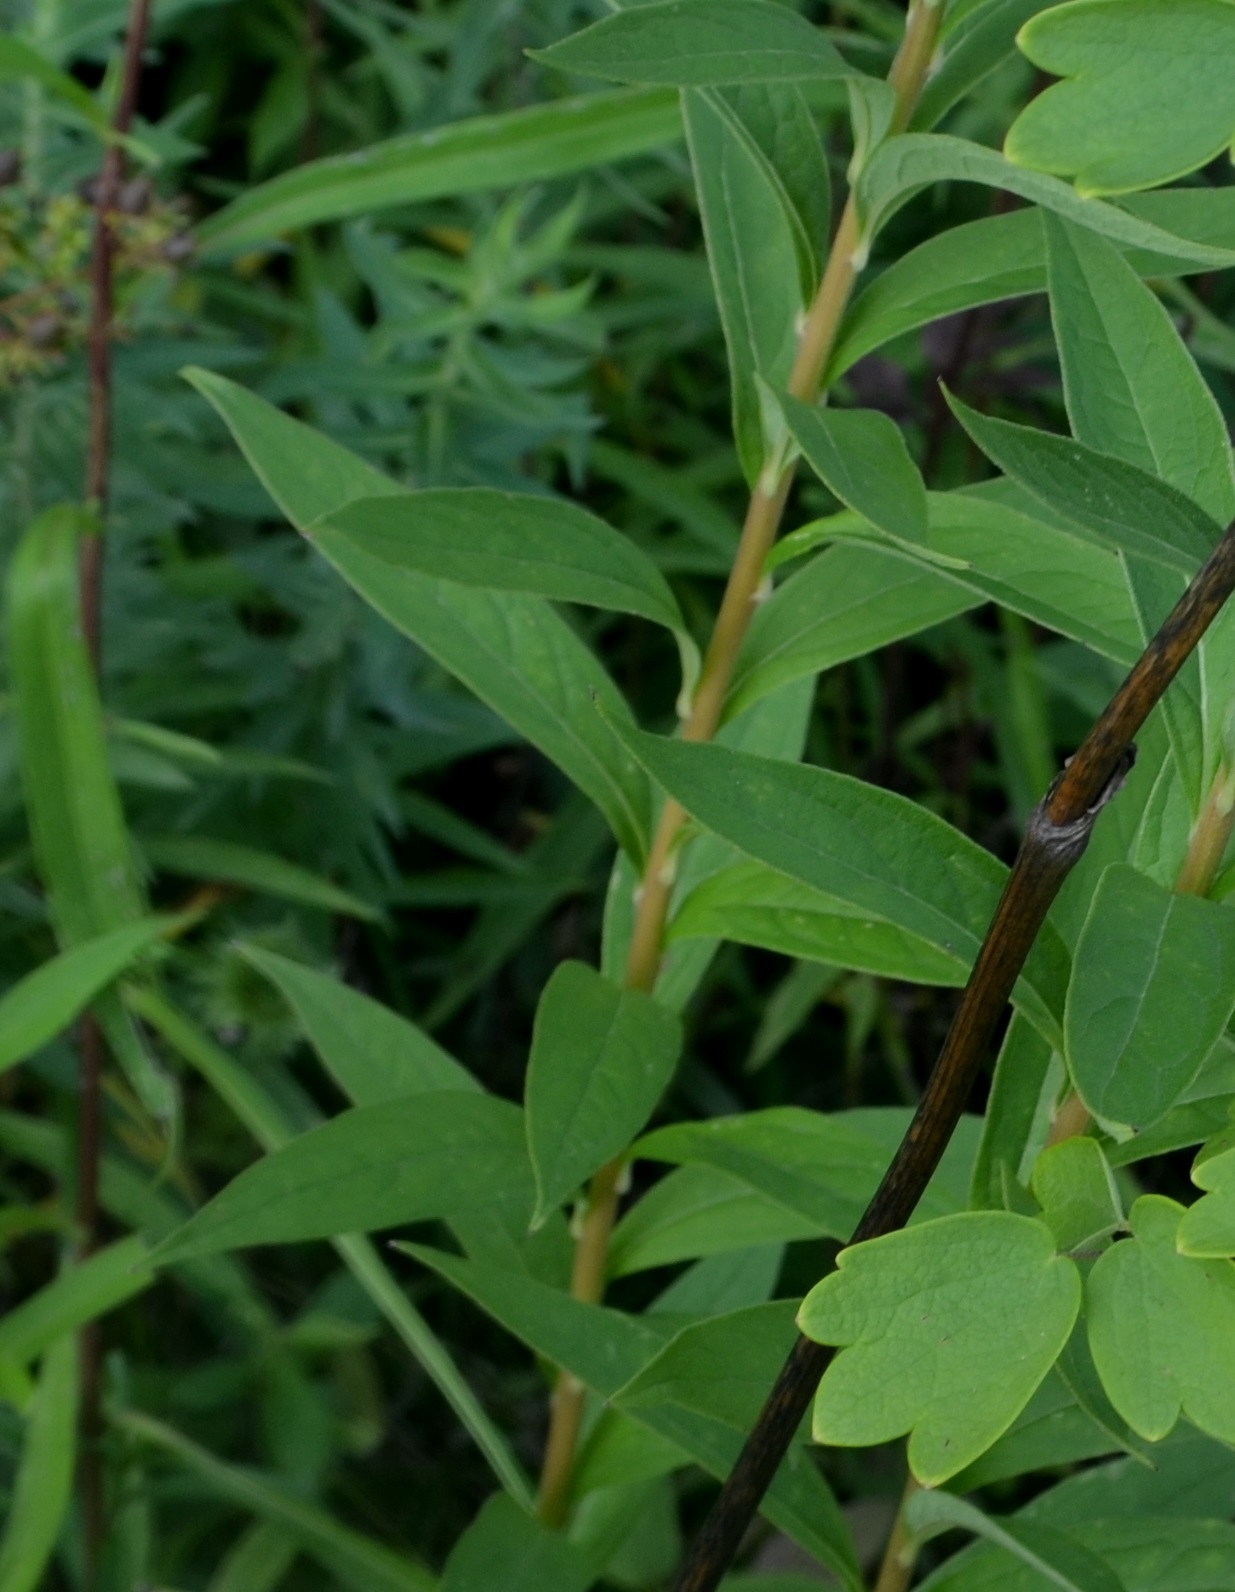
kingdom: Plantae
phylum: Tracheophyta
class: Magnoliopsida
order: Asterales
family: Asteraceae
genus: Doellingeria
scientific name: Doellingeria umbellata
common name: Flat-top white aster
